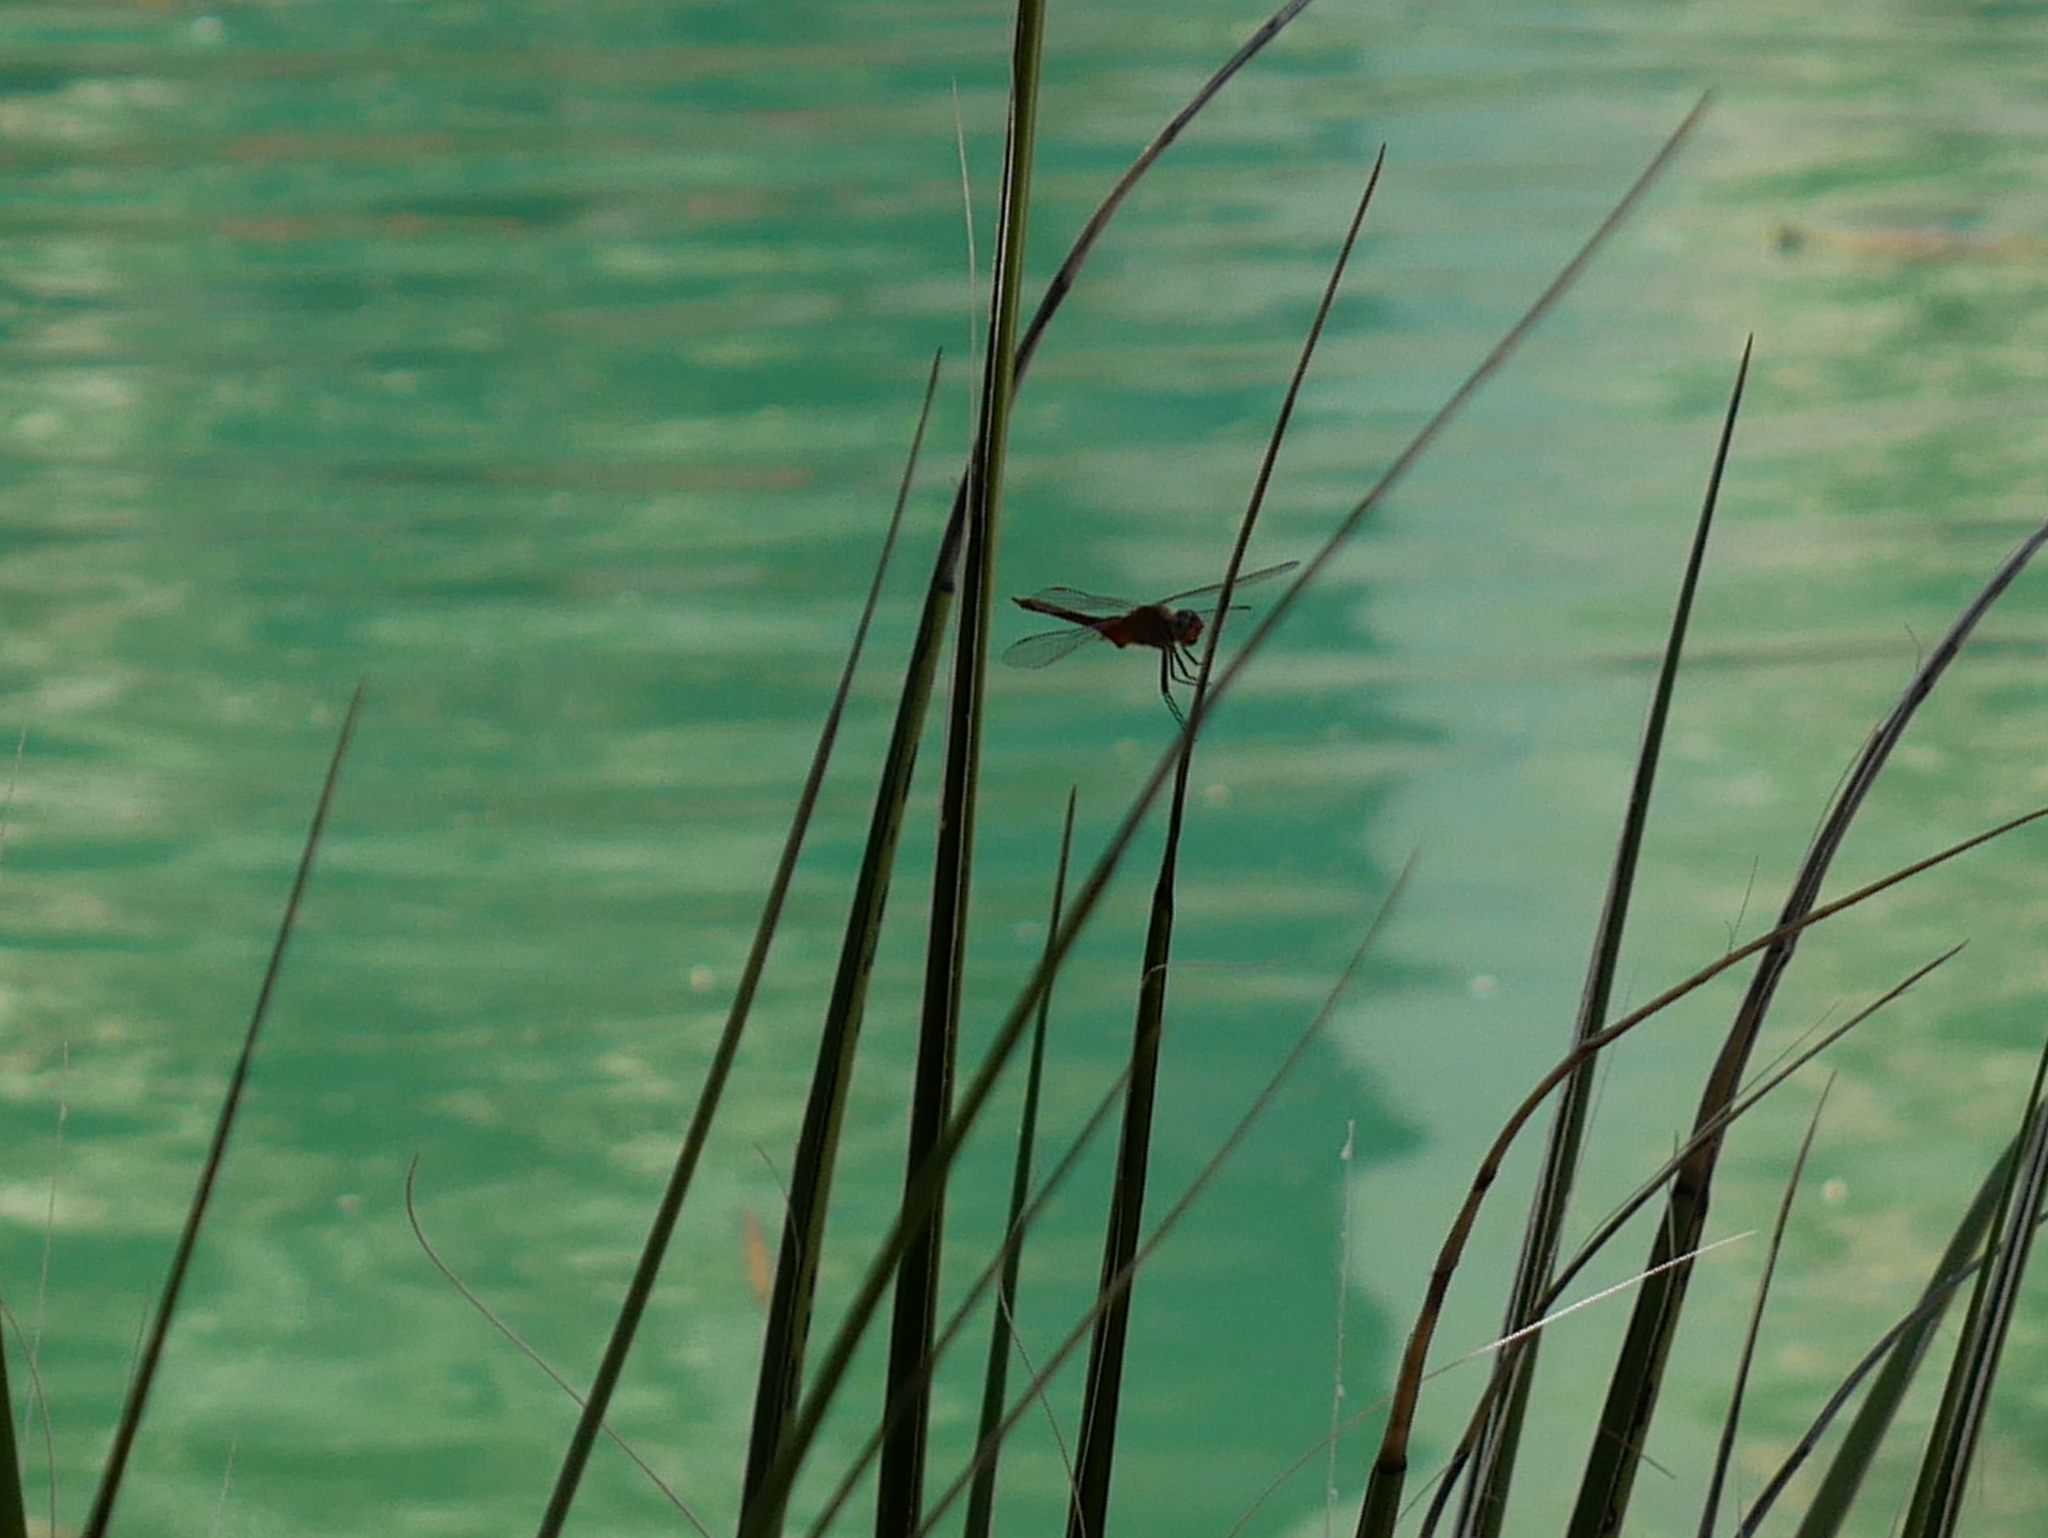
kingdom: Animalia
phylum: Arthropoda
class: Insecta
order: Odonata
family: Libellulidae
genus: Brachymesia
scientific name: Brachymesia furcata
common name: Red-taled pennant
